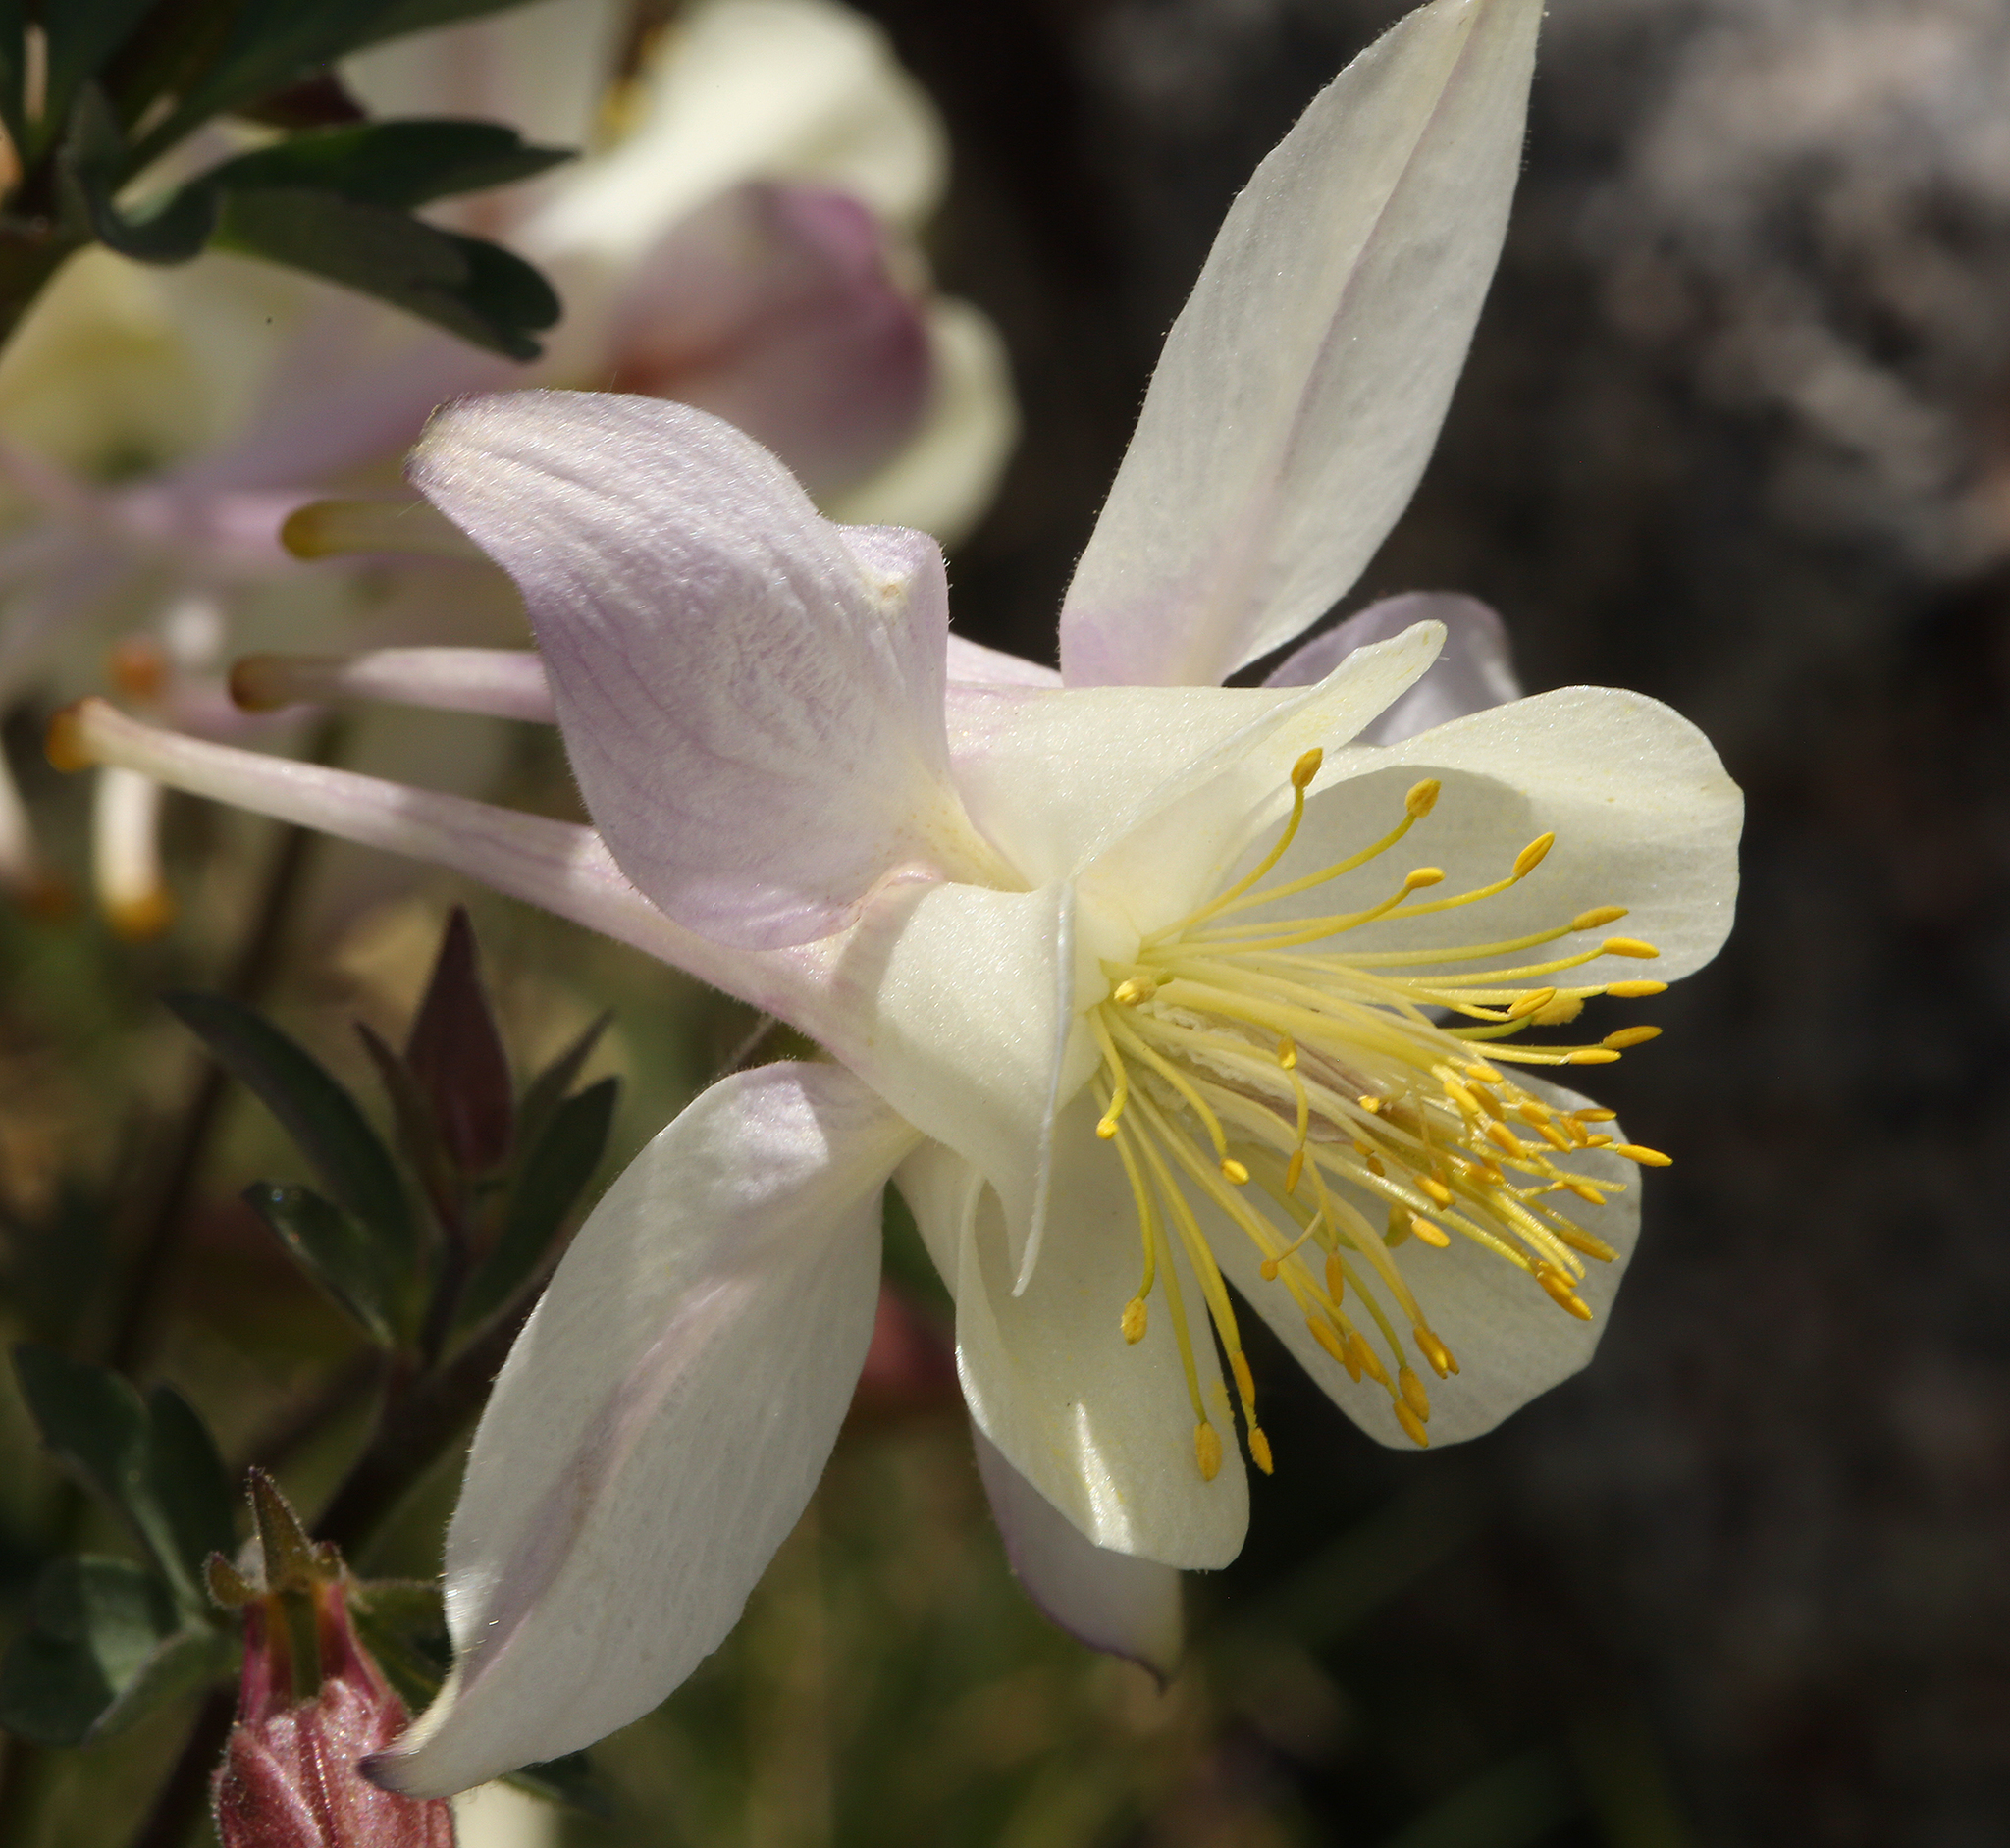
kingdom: Plantae
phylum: Tracheophyta
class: Magnoliopsida
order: Ranunculales
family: Ranunculaceae
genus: Aquilegia
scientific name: Aquilegia pubescens
